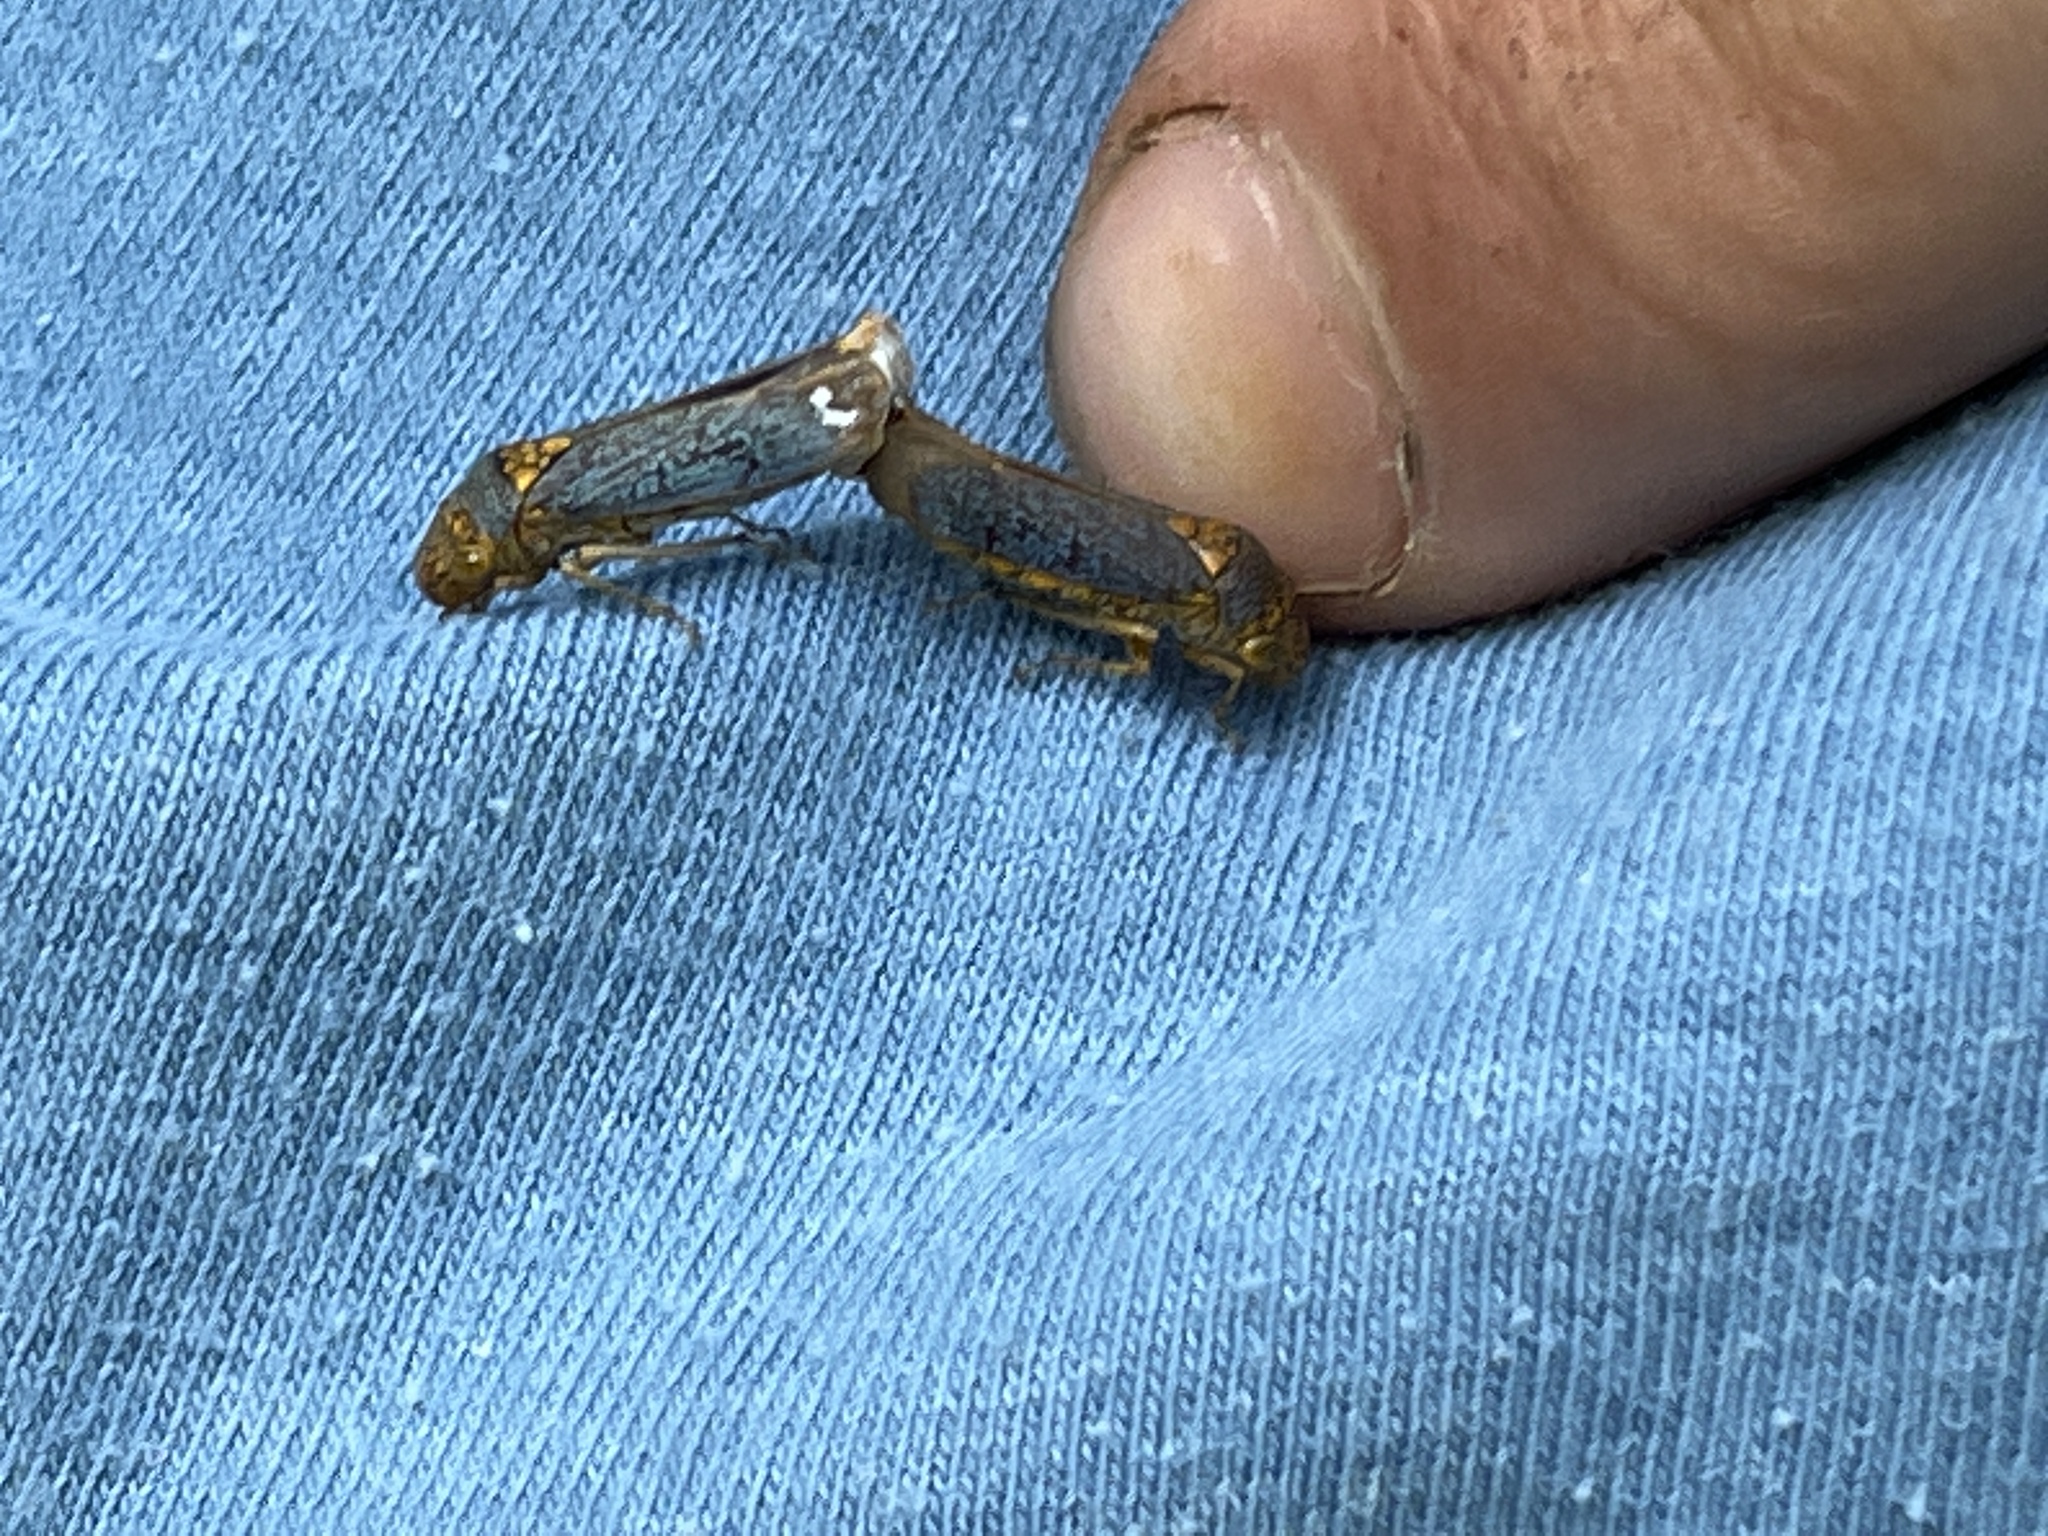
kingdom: Animalia
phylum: Arthropoda
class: Insecta
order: Hemiptera
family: Cicadellidae
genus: Oncometopia
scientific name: Oncometopia orbona
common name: Broad-headed sharpshooter
